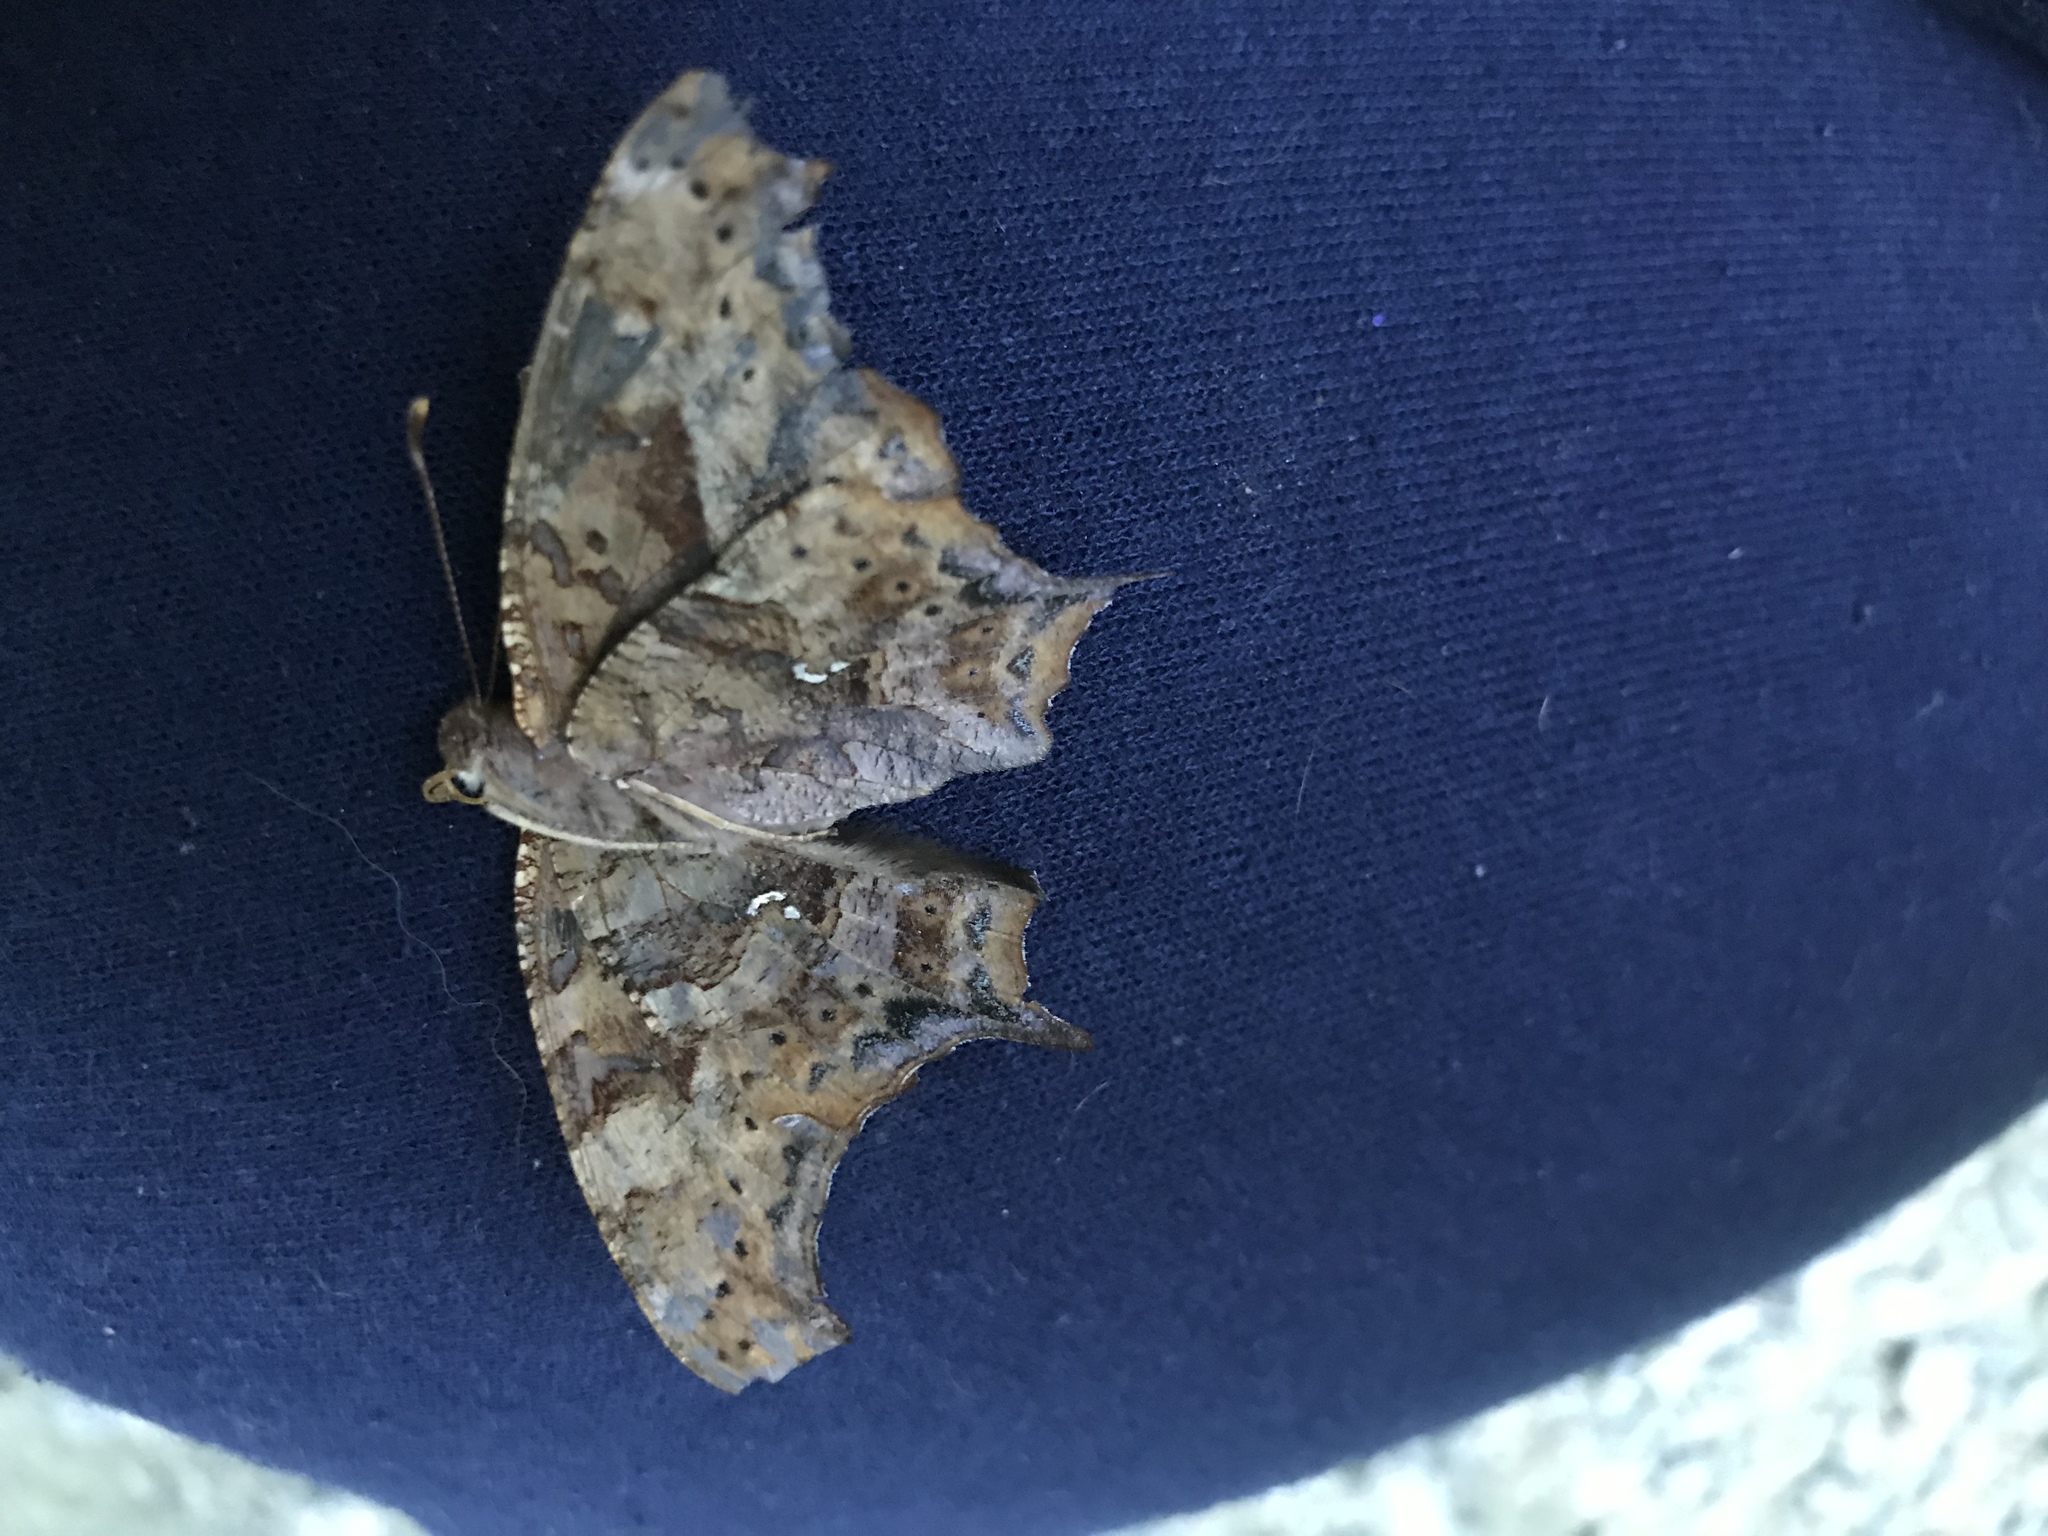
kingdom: Animalia
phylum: Arthropoda
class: Insecta
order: Lepidoptera
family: Nymphalidae
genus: Polygonia
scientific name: Polygonia interrogationis
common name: Question mark
